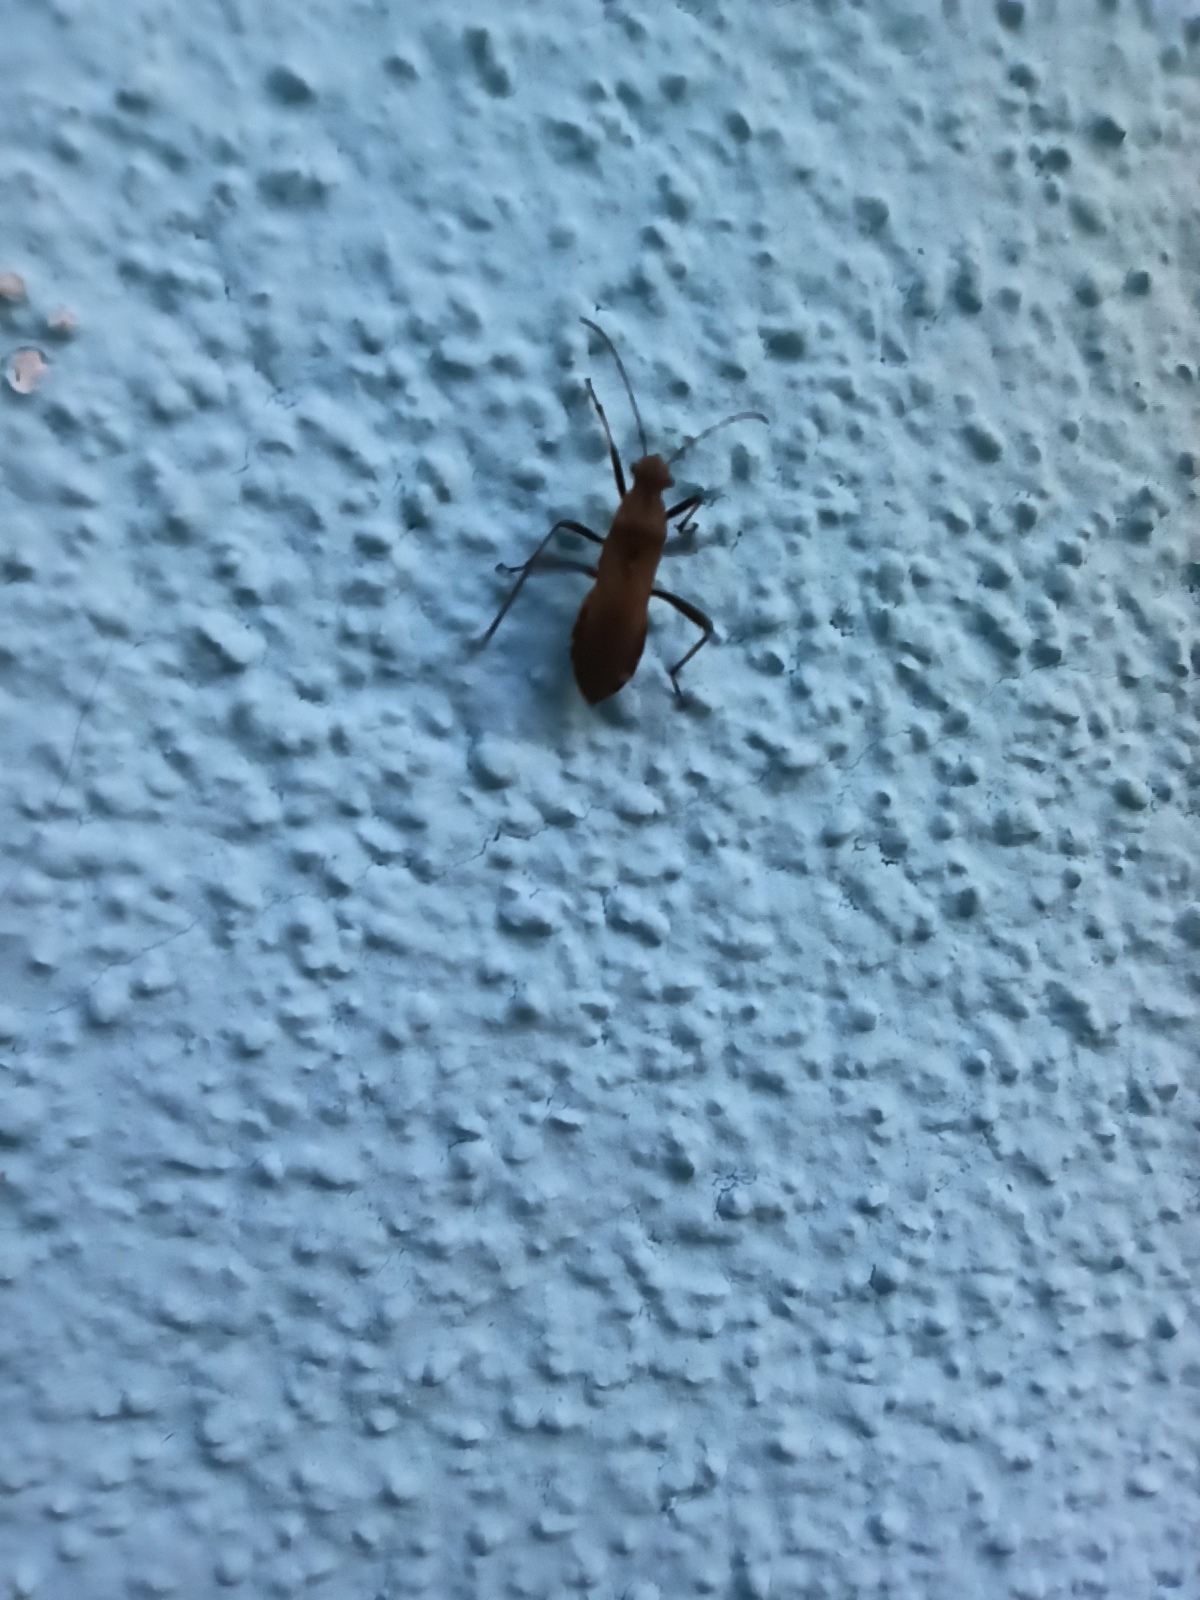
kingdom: Animalia
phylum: Arthropoda
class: Insecta
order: Hemiptera
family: Alydidae
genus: Alydus
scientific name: Alydus calcaratus
